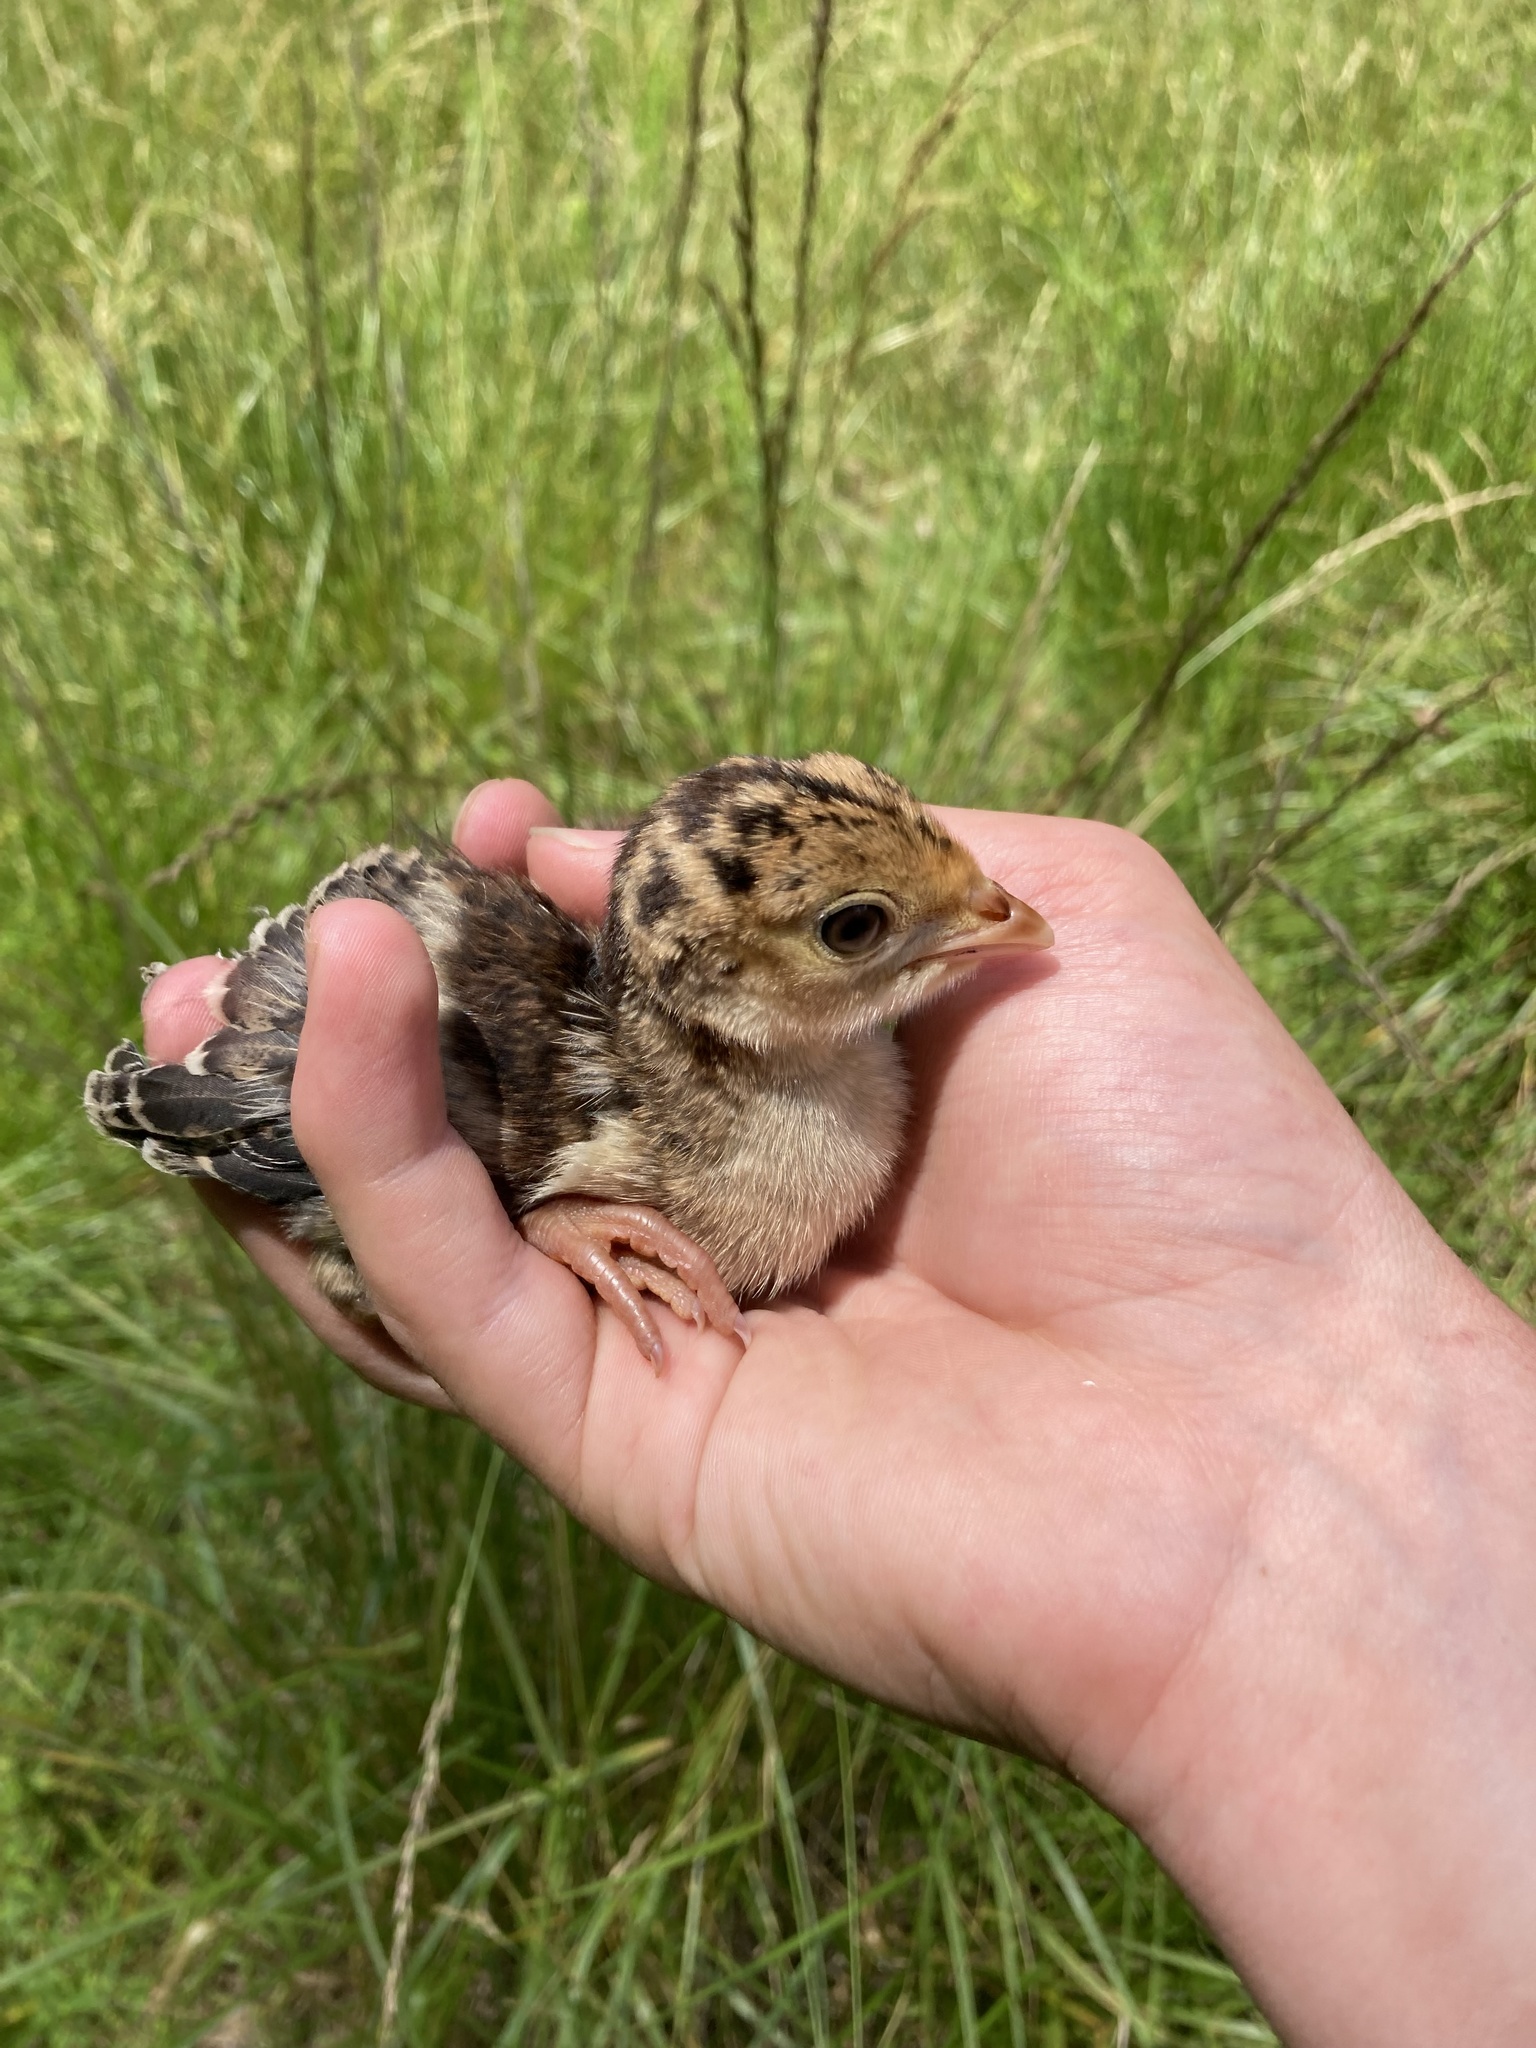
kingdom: Animalia
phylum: Chordata
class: Aves
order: Galliformes
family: Phasianidae
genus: Meleagris
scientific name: Meleagris gallopavo
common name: Wild turkey
